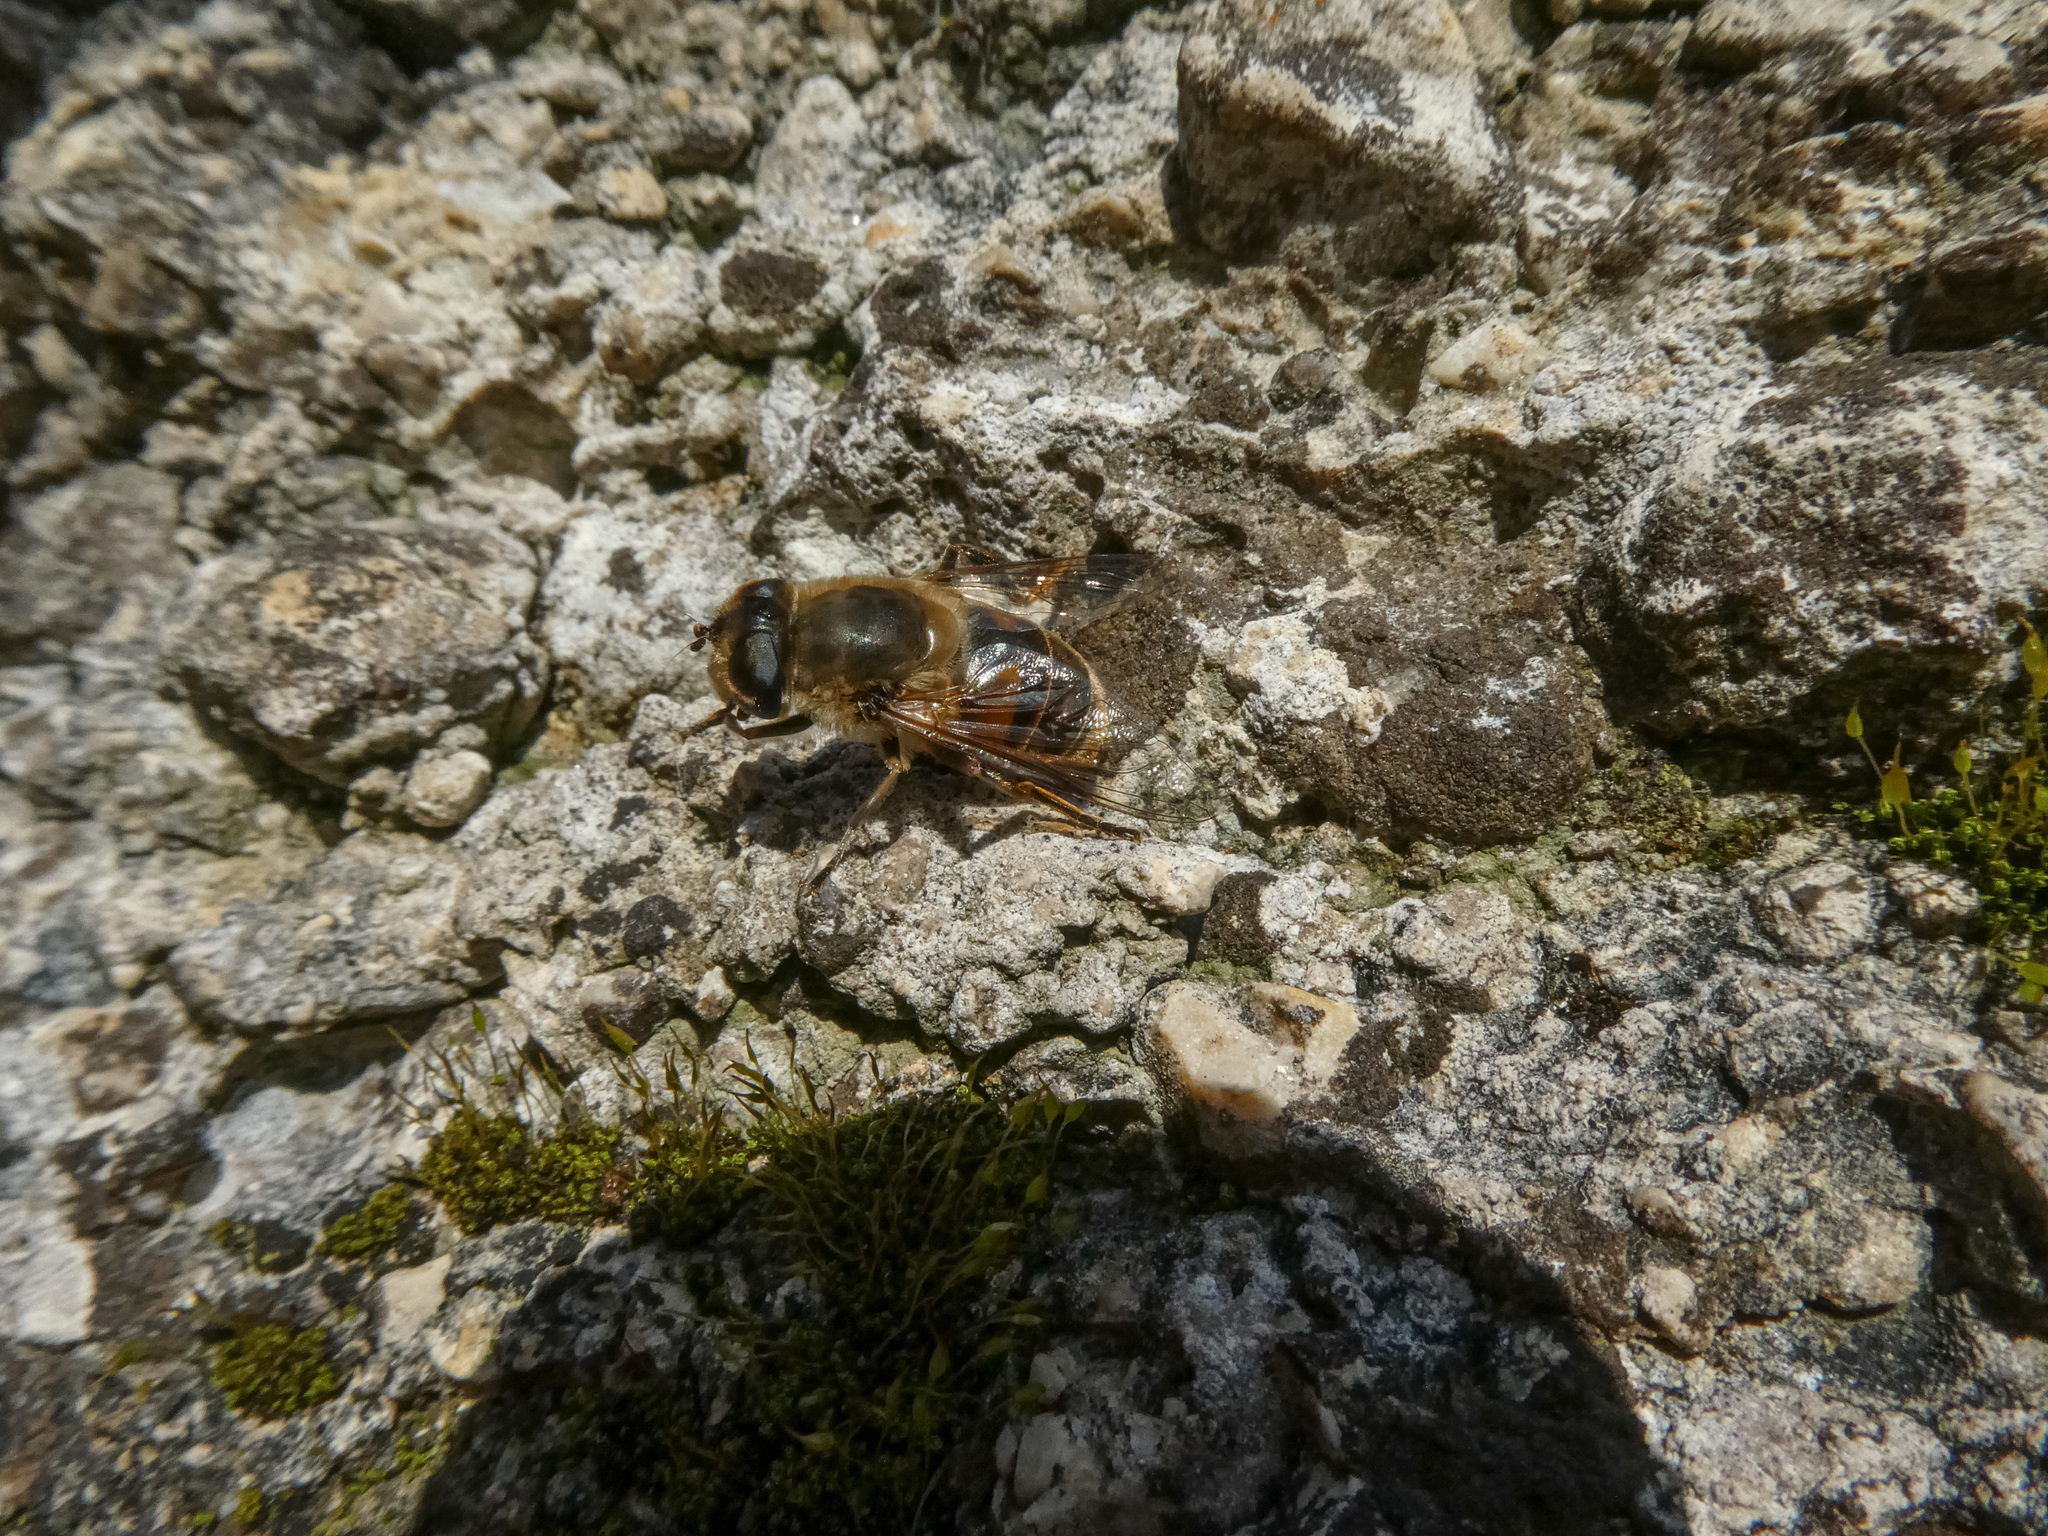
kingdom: Animalia
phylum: Arthropoda
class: Insecta
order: Diptera
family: Syrphidae
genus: Eristalis
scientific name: Eristalis tenax
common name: Drone fly
